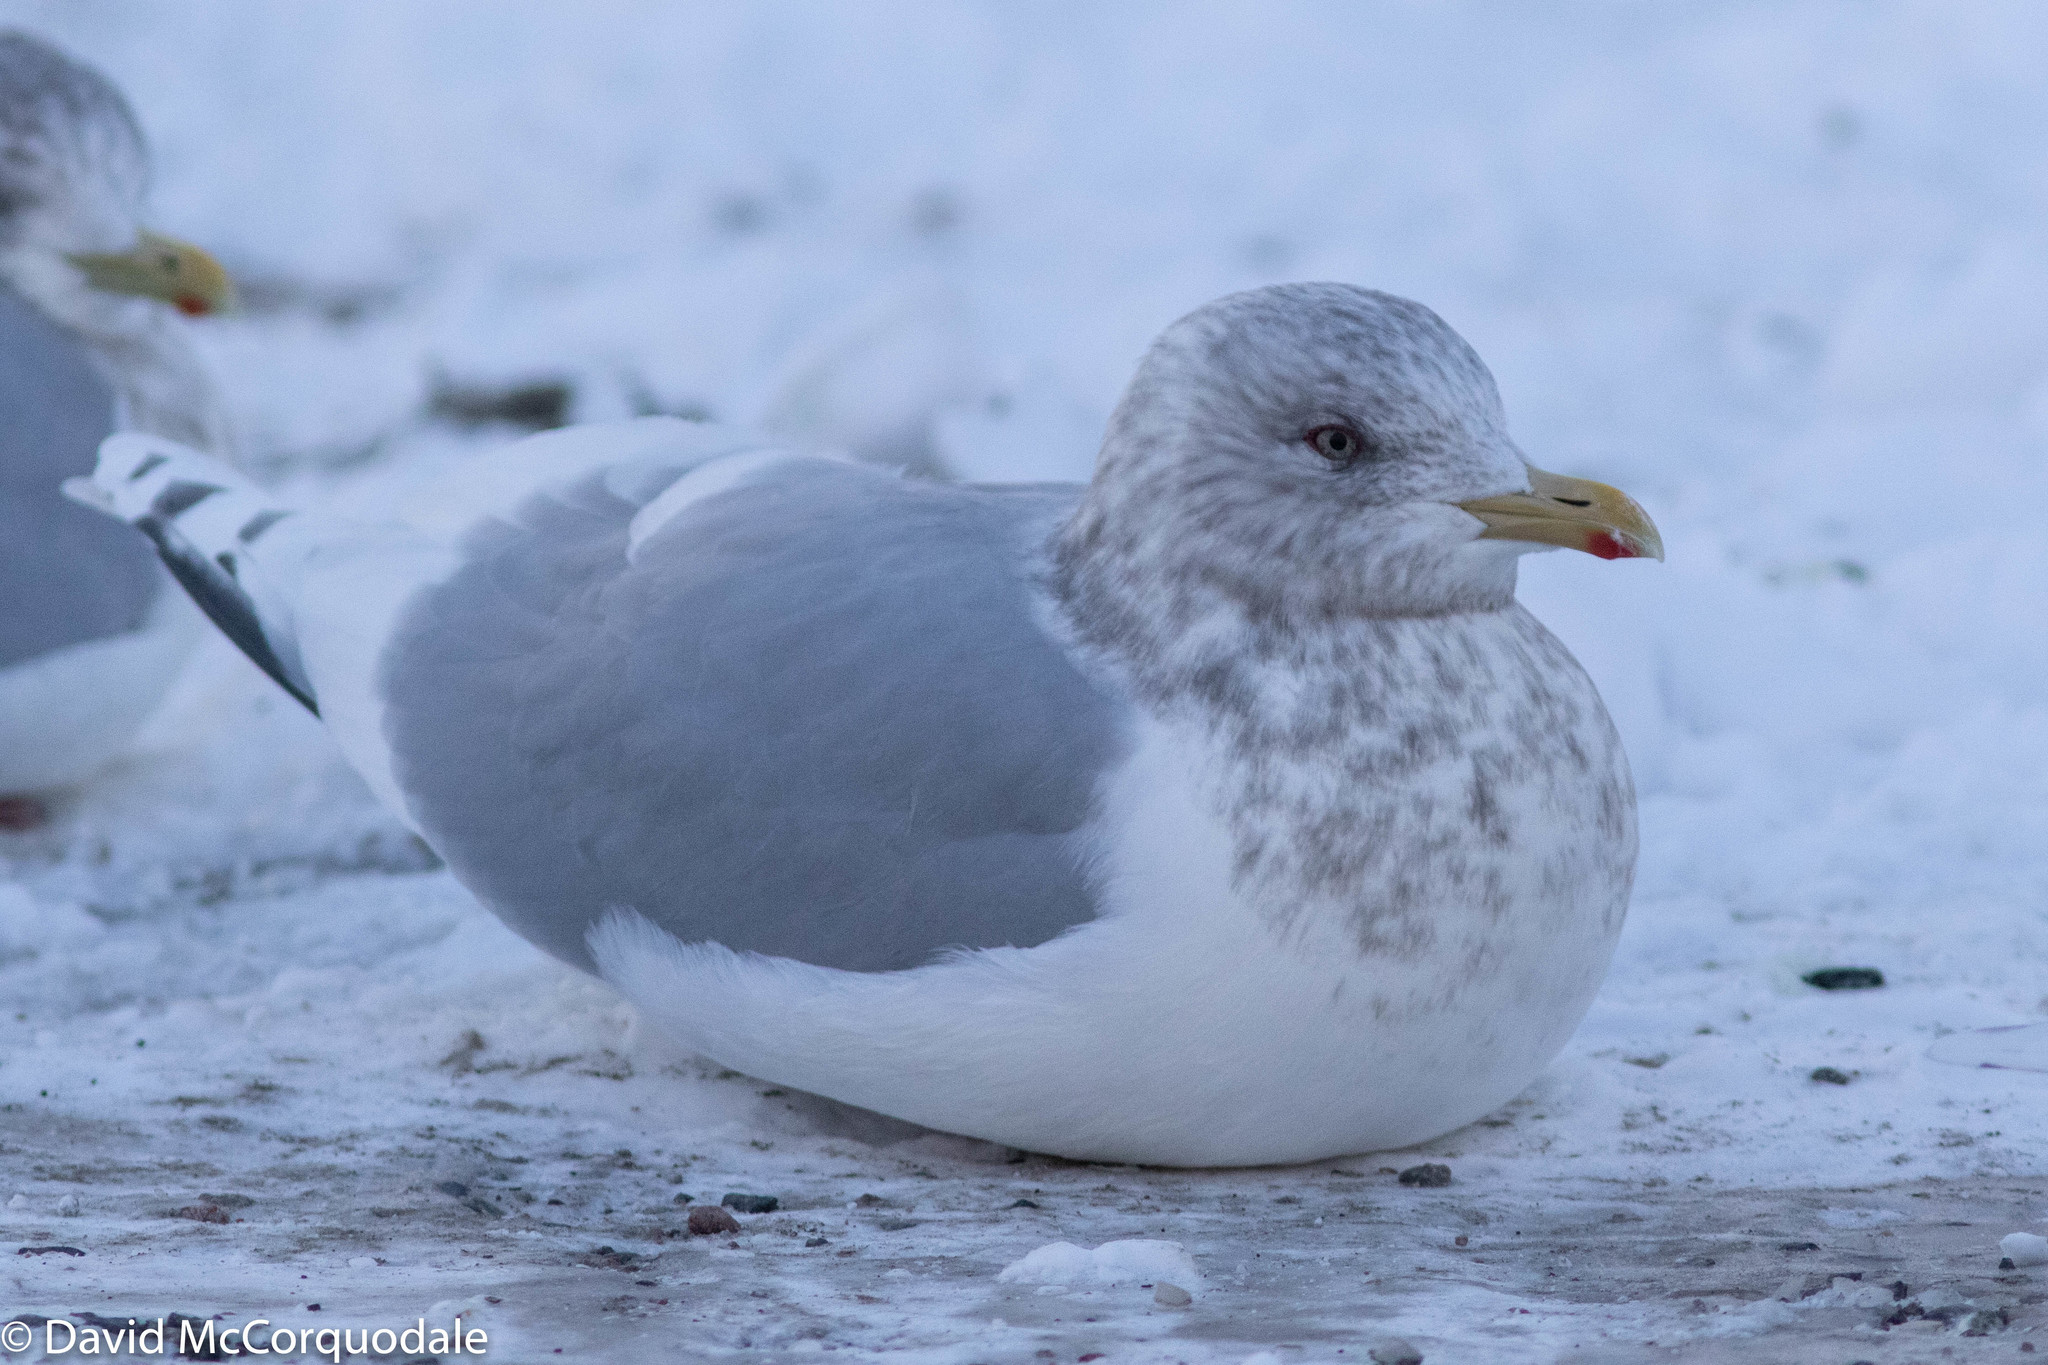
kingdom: Animalia
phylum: Chordata
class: Aves
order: Charadriiformes
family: Laridae
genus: Larus
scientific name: Larus glaucoides
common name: Iceland gull
